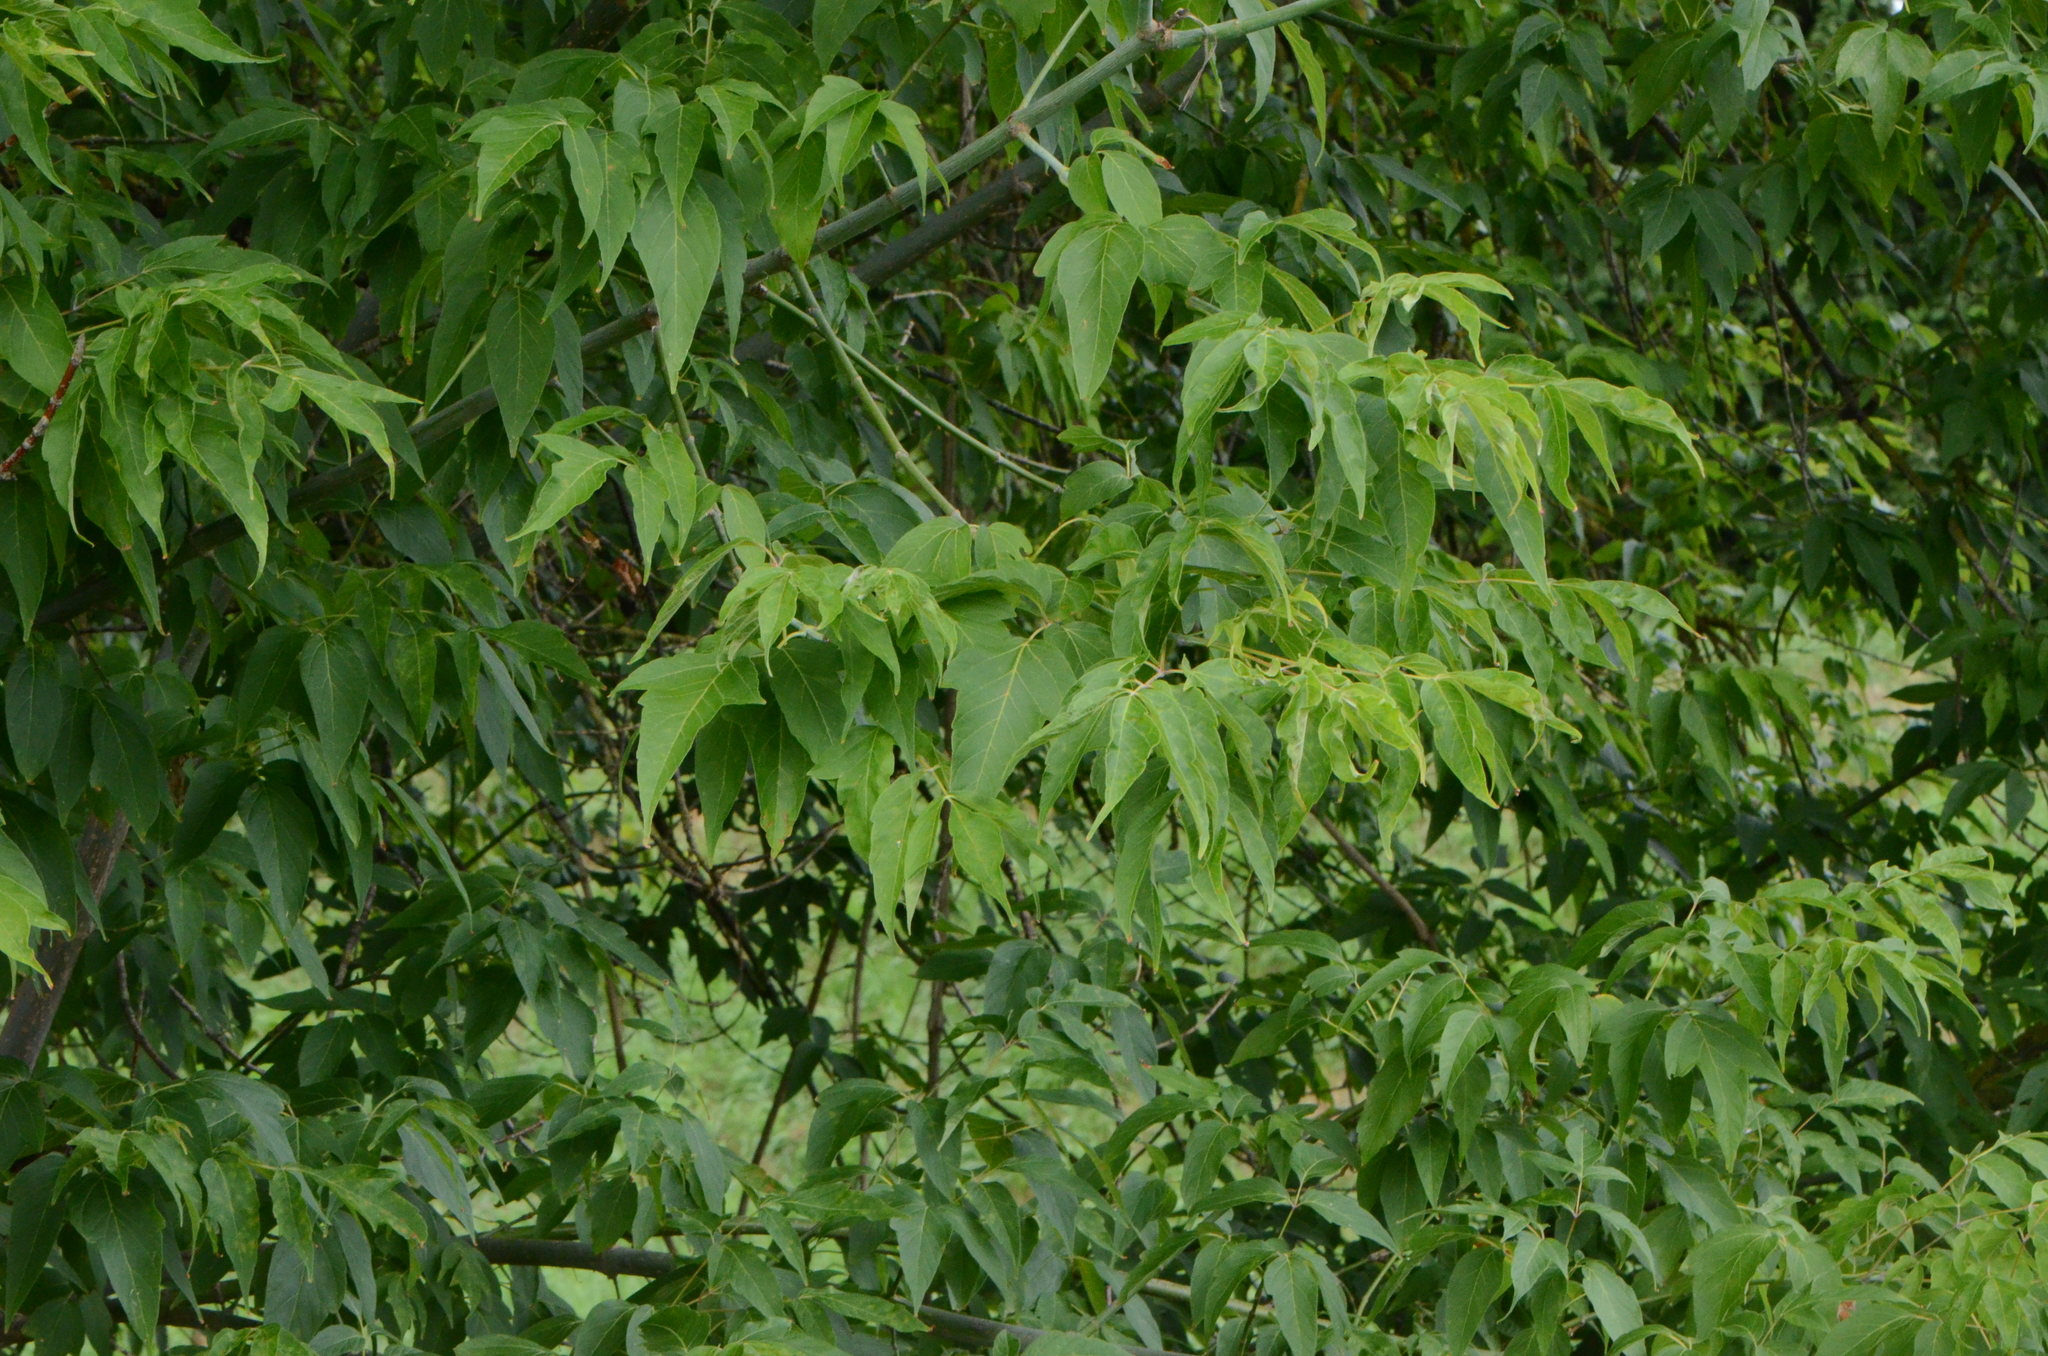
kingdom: Plantae
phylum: Tracheophyta
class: Magnoliopsida
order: Sapindales
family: Sapindaceae
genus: Acer
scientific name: Acer negundo
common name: Ashleaf maple
